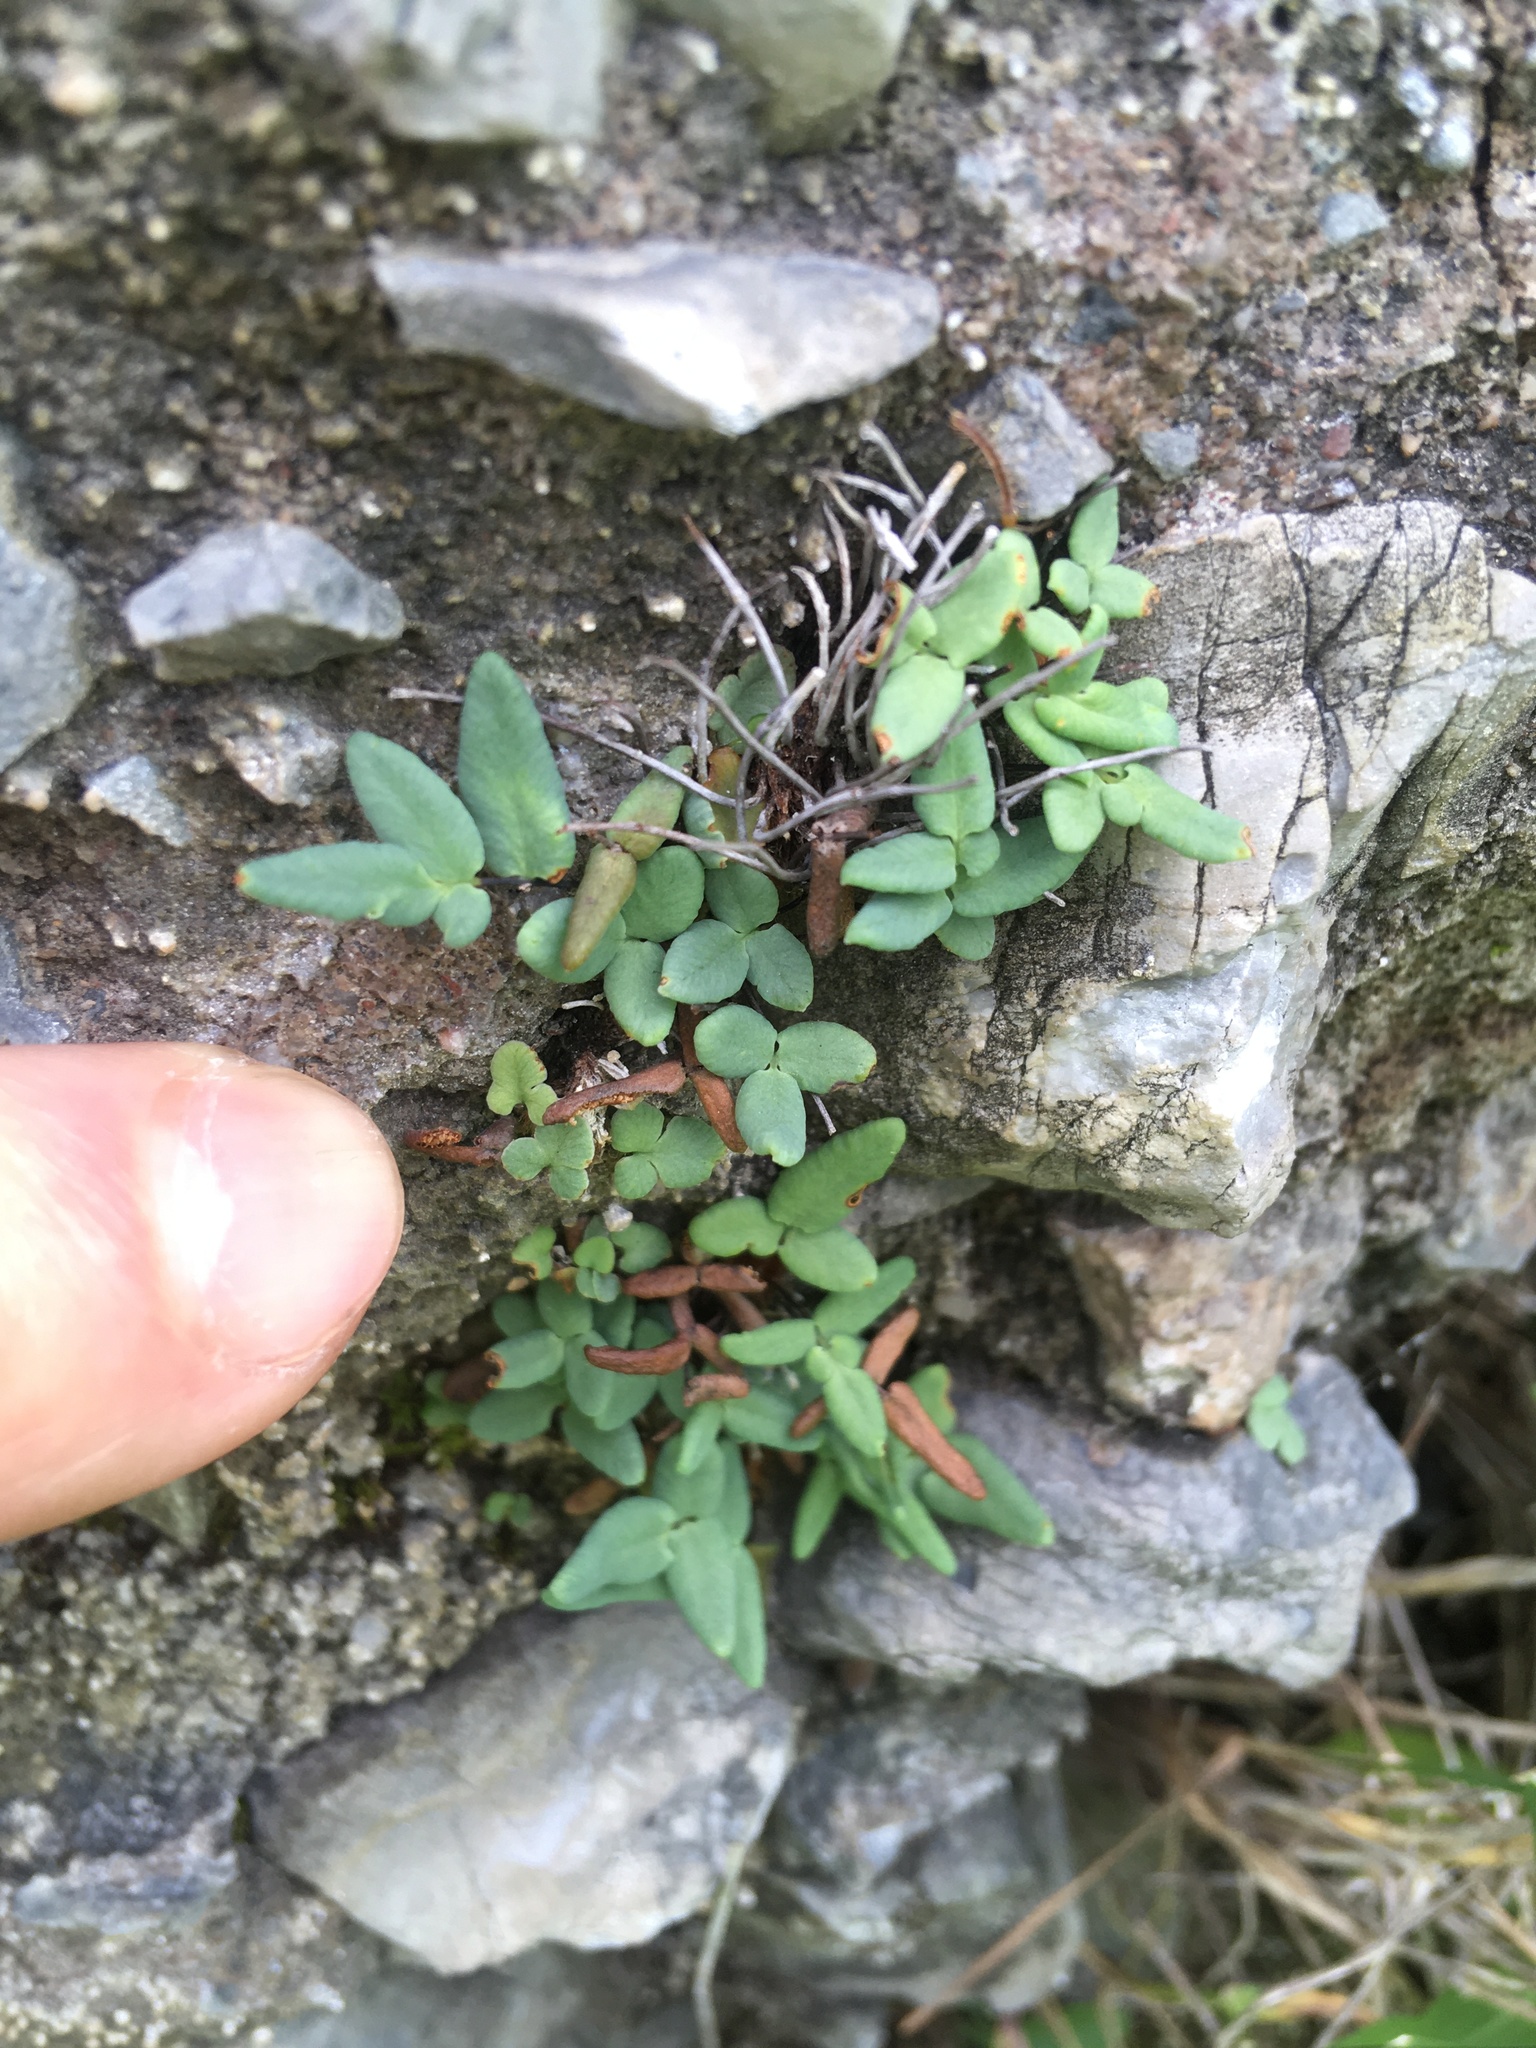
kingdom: Plantae
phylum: Tracheophyta
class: Polypodiopsida
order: Polypodiales
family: Pteridaceae
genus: Pellaea
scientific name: Pellaea glabella
